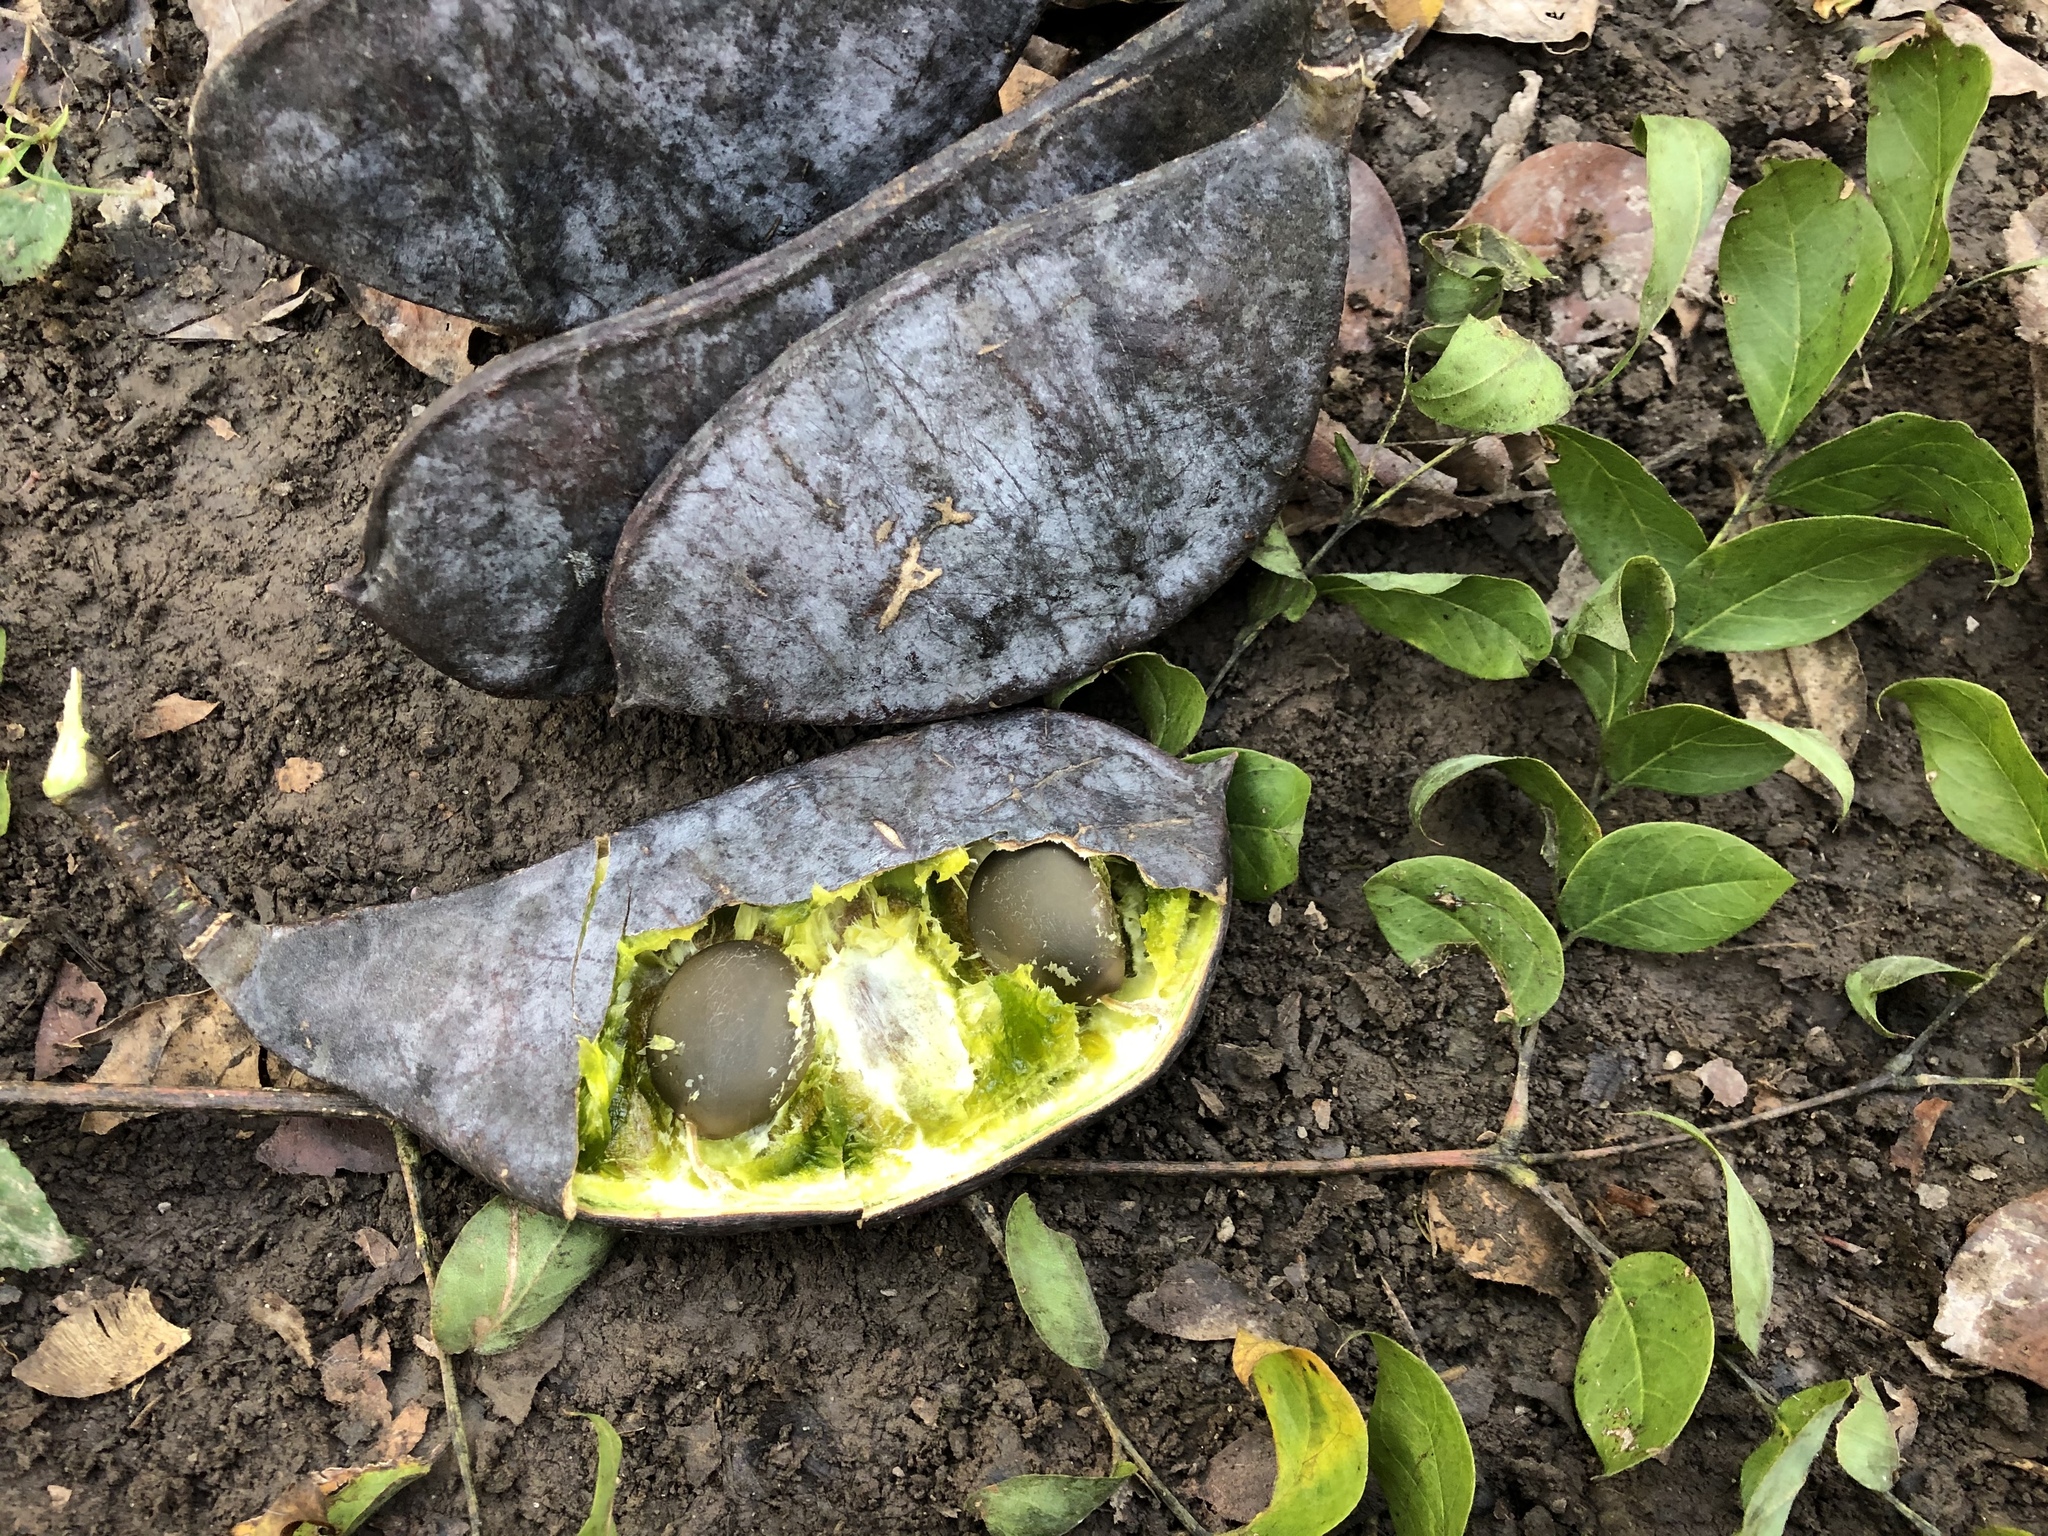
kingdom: Plantae
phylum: Tracheophyta
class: Magnoliopsida
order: Fabales
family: Fabaceae
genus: Gymnocladus
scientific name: Gymnocladus dioicus
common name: Kentucky coffee-tree
